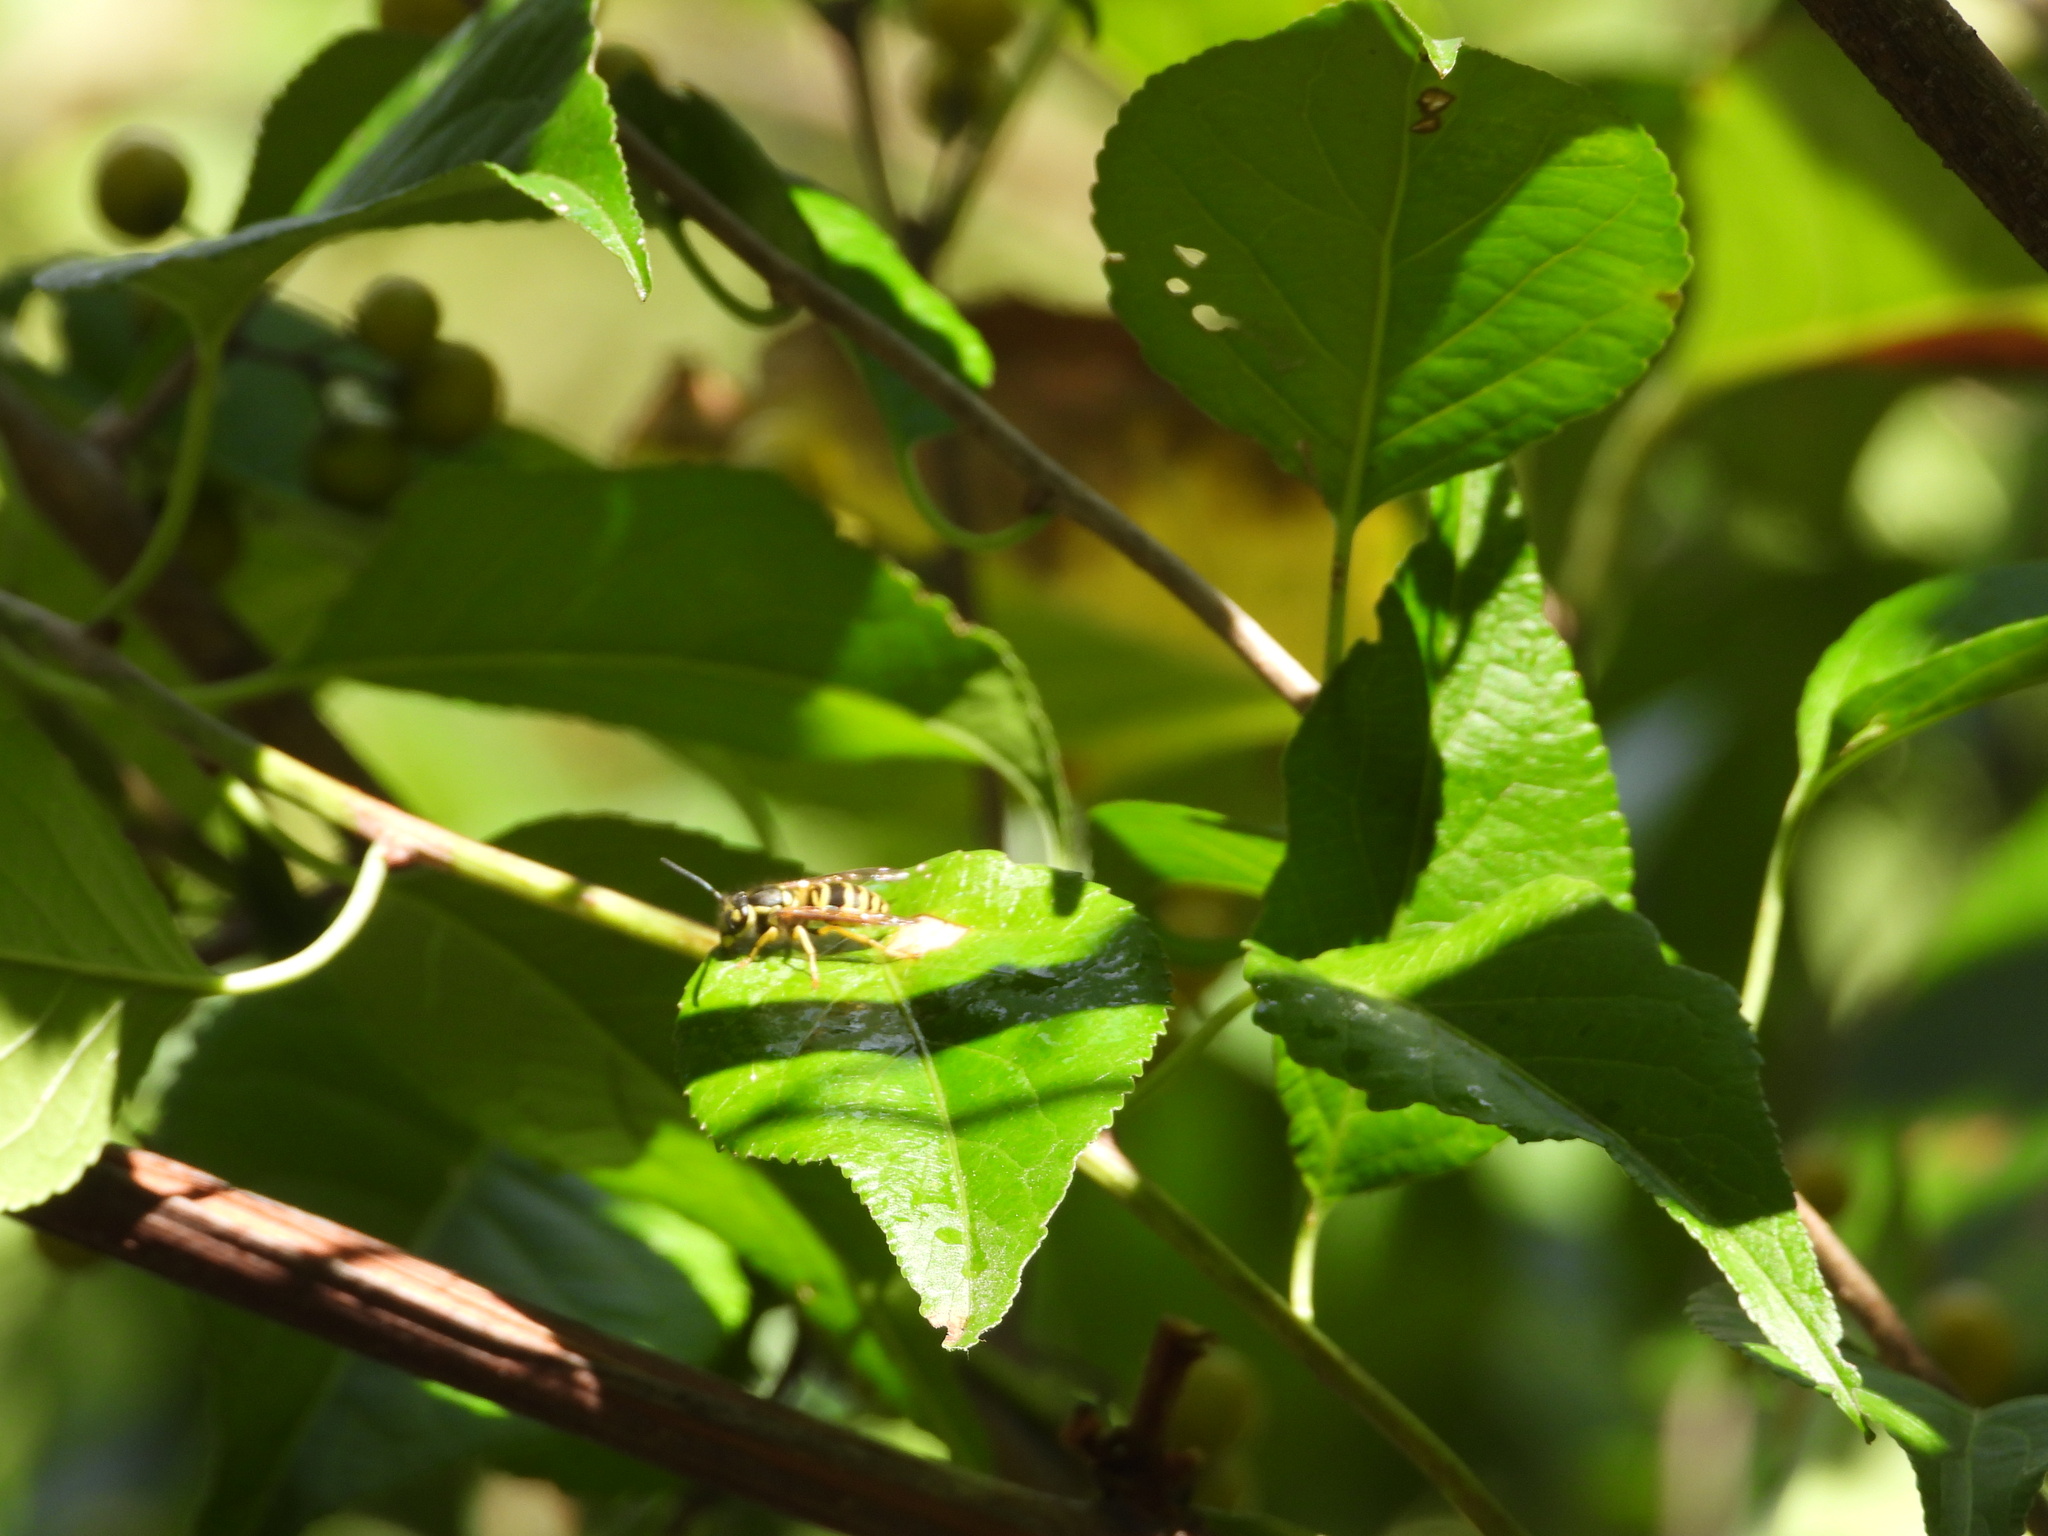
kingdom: Animalia
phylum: Arthropoda
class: Insecta
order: Hymenoptera
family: Vespidae
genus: Vespula
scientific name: Vespula maculifrons
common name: Eastern yellowjacket
